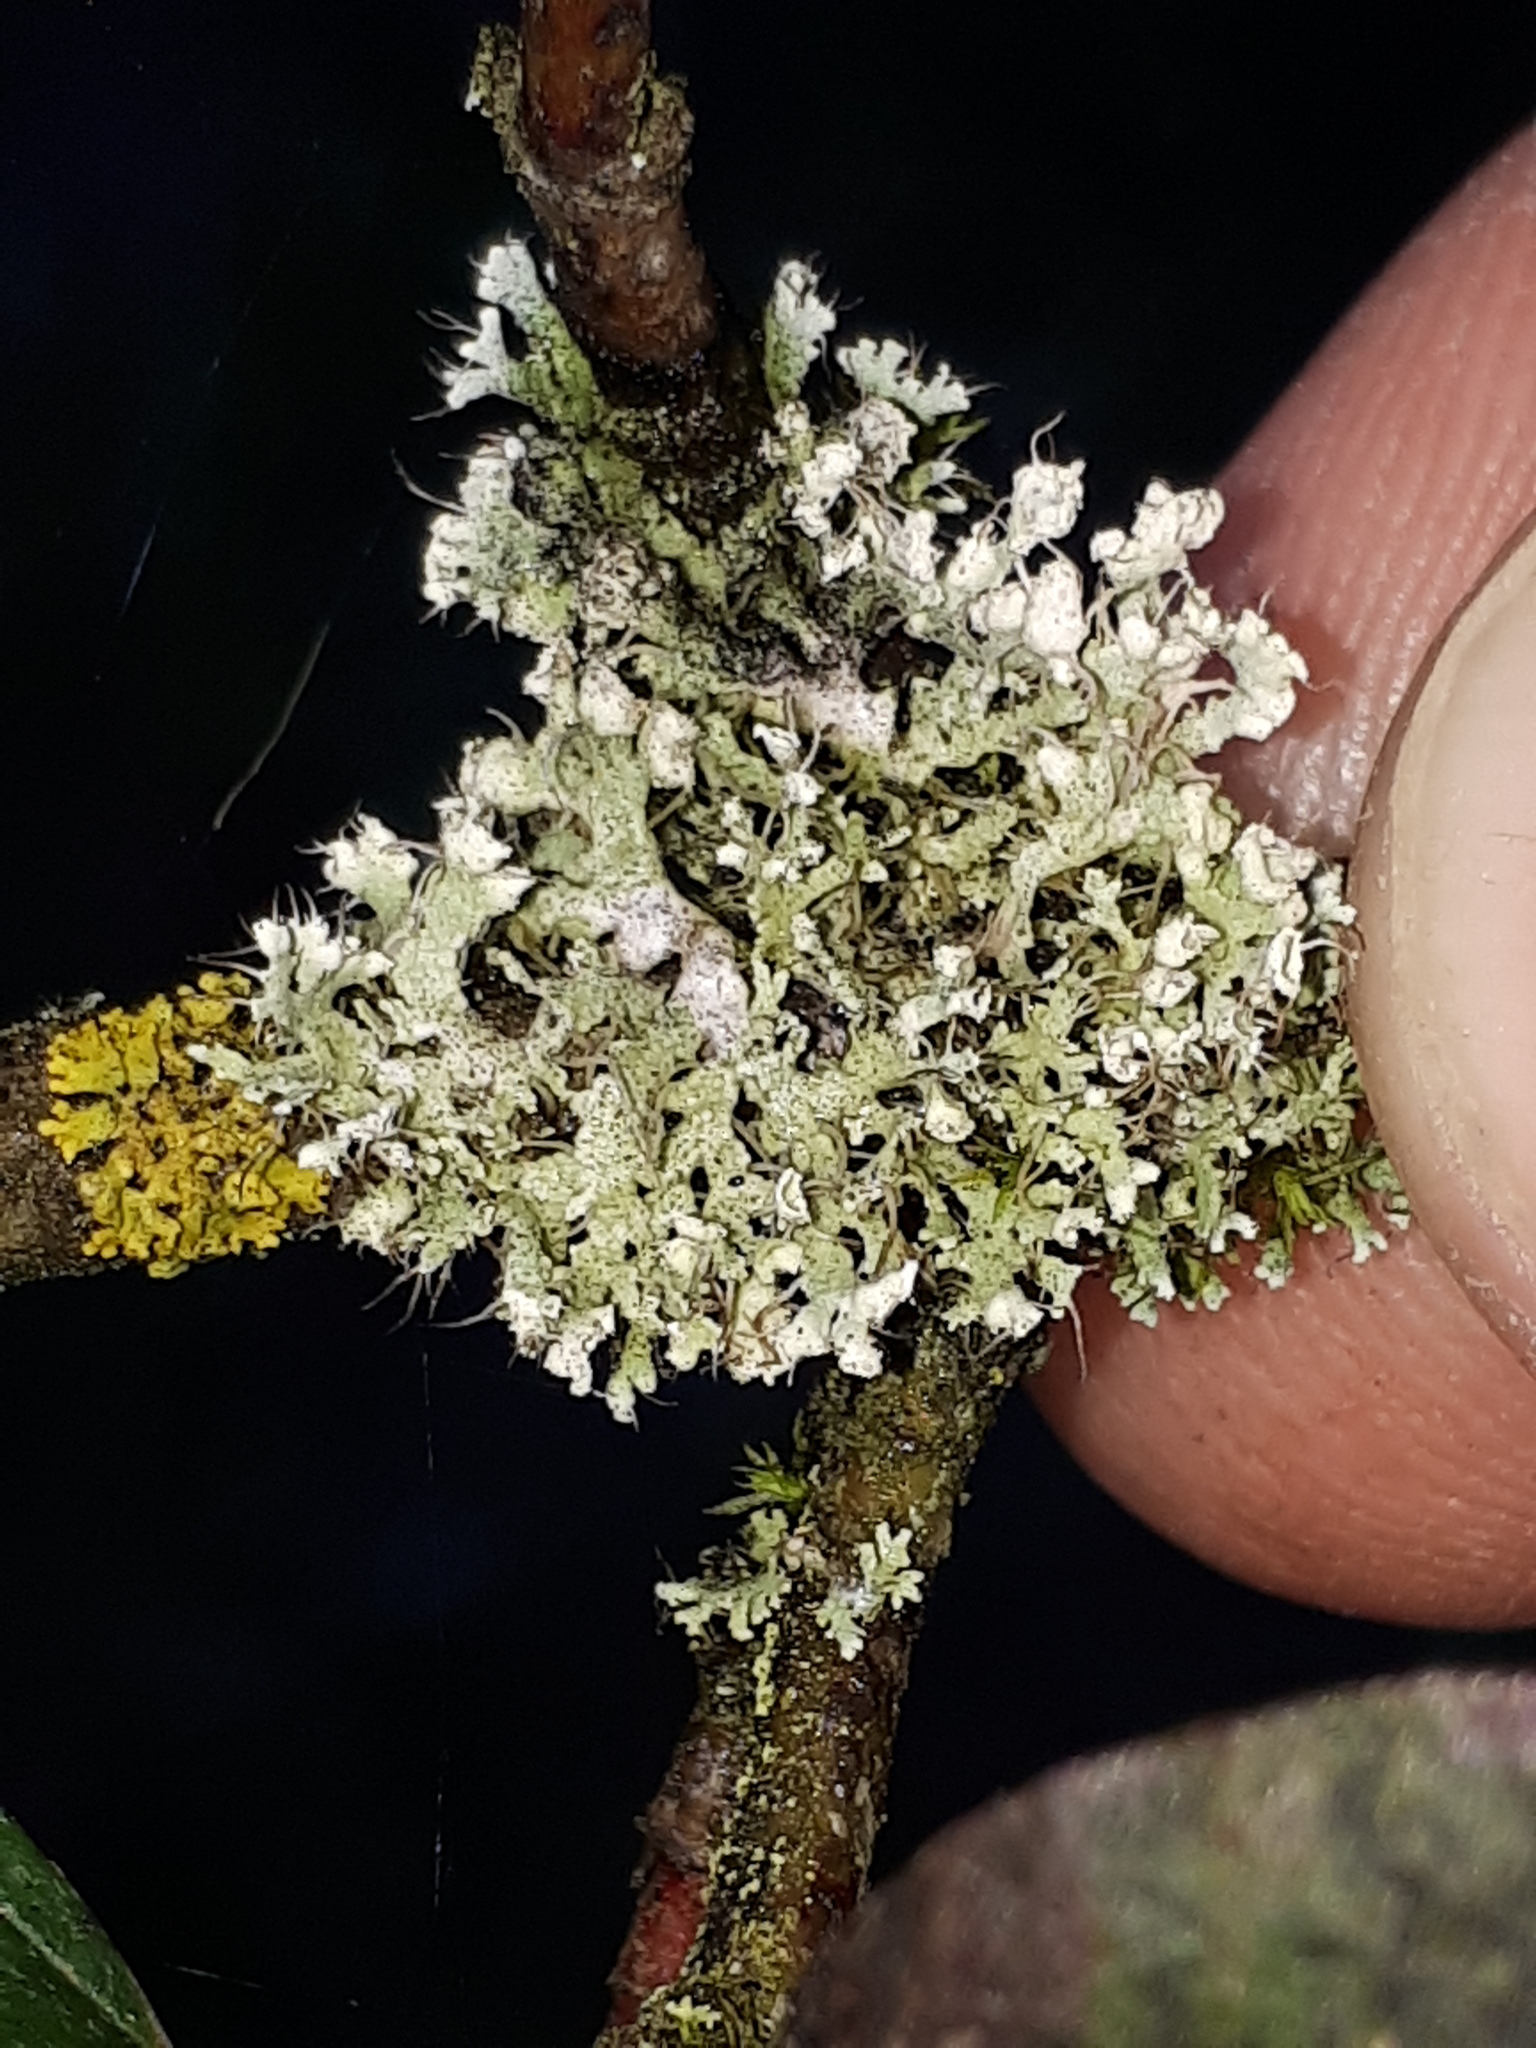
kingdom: Fungi
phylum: Ascomycota
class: Lecanoromycetes
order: Caliciales
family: Physciaceae
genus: Physcia
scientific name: Physcia adscendens
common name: Hooded rosette lichen
